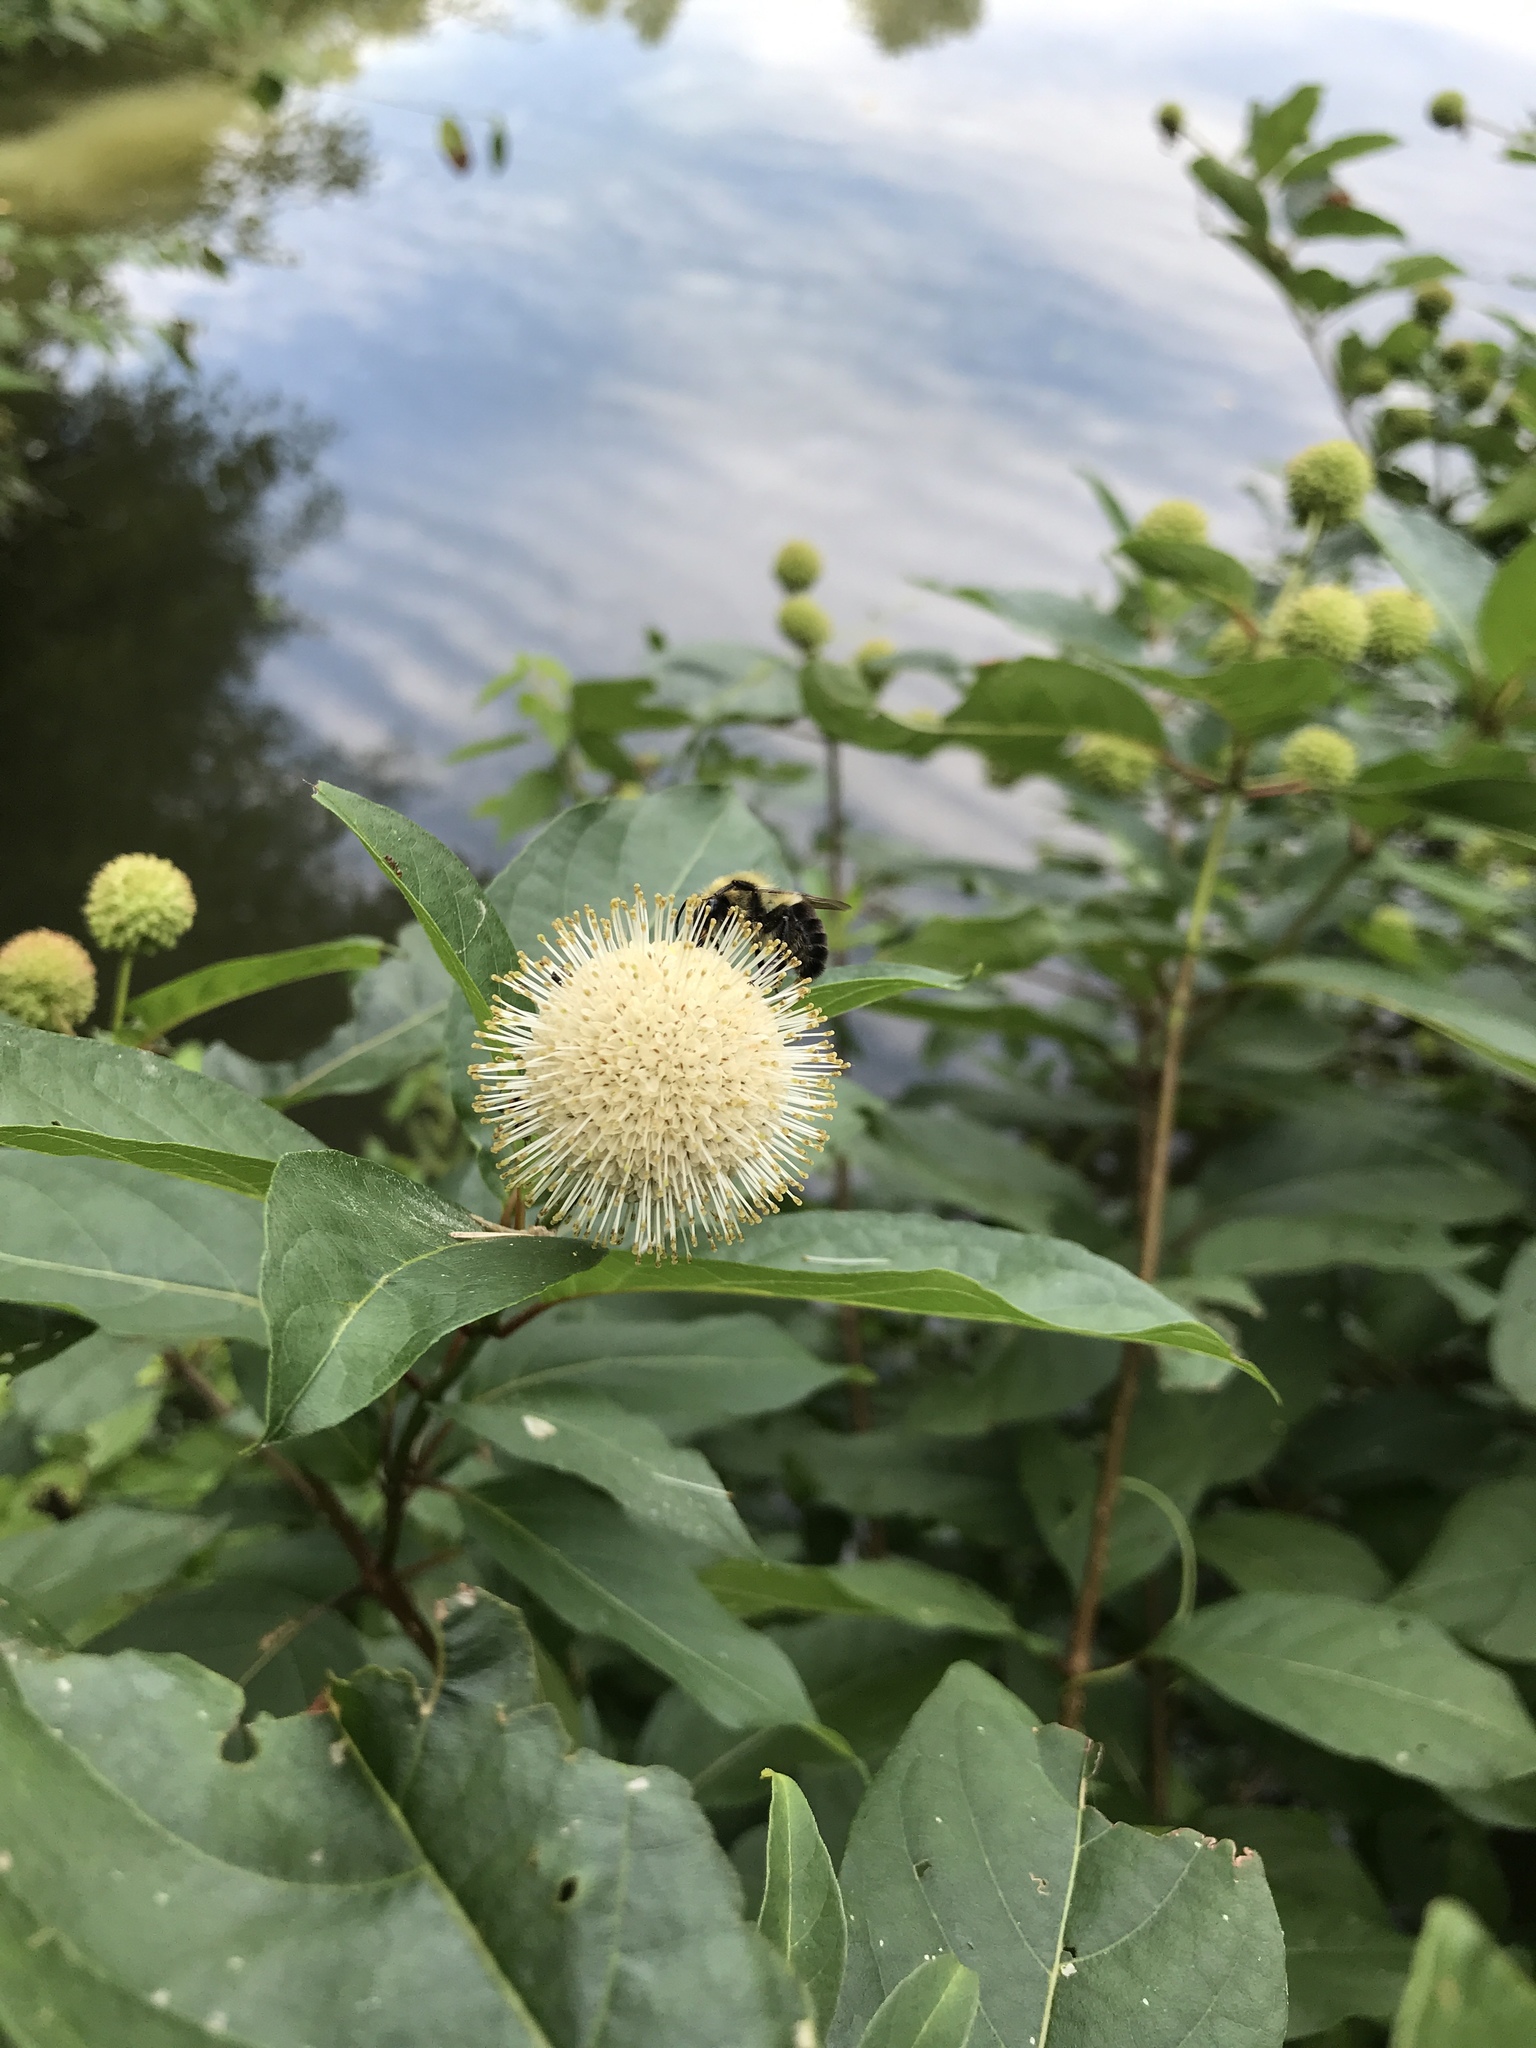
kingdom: Plantae
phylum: Tracheophyta
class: Magnoliopsida
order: Gentianales
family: Rubiaceae
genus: Cephalanthus
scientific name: Cephalanthus occidentalis
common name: Button-willow
